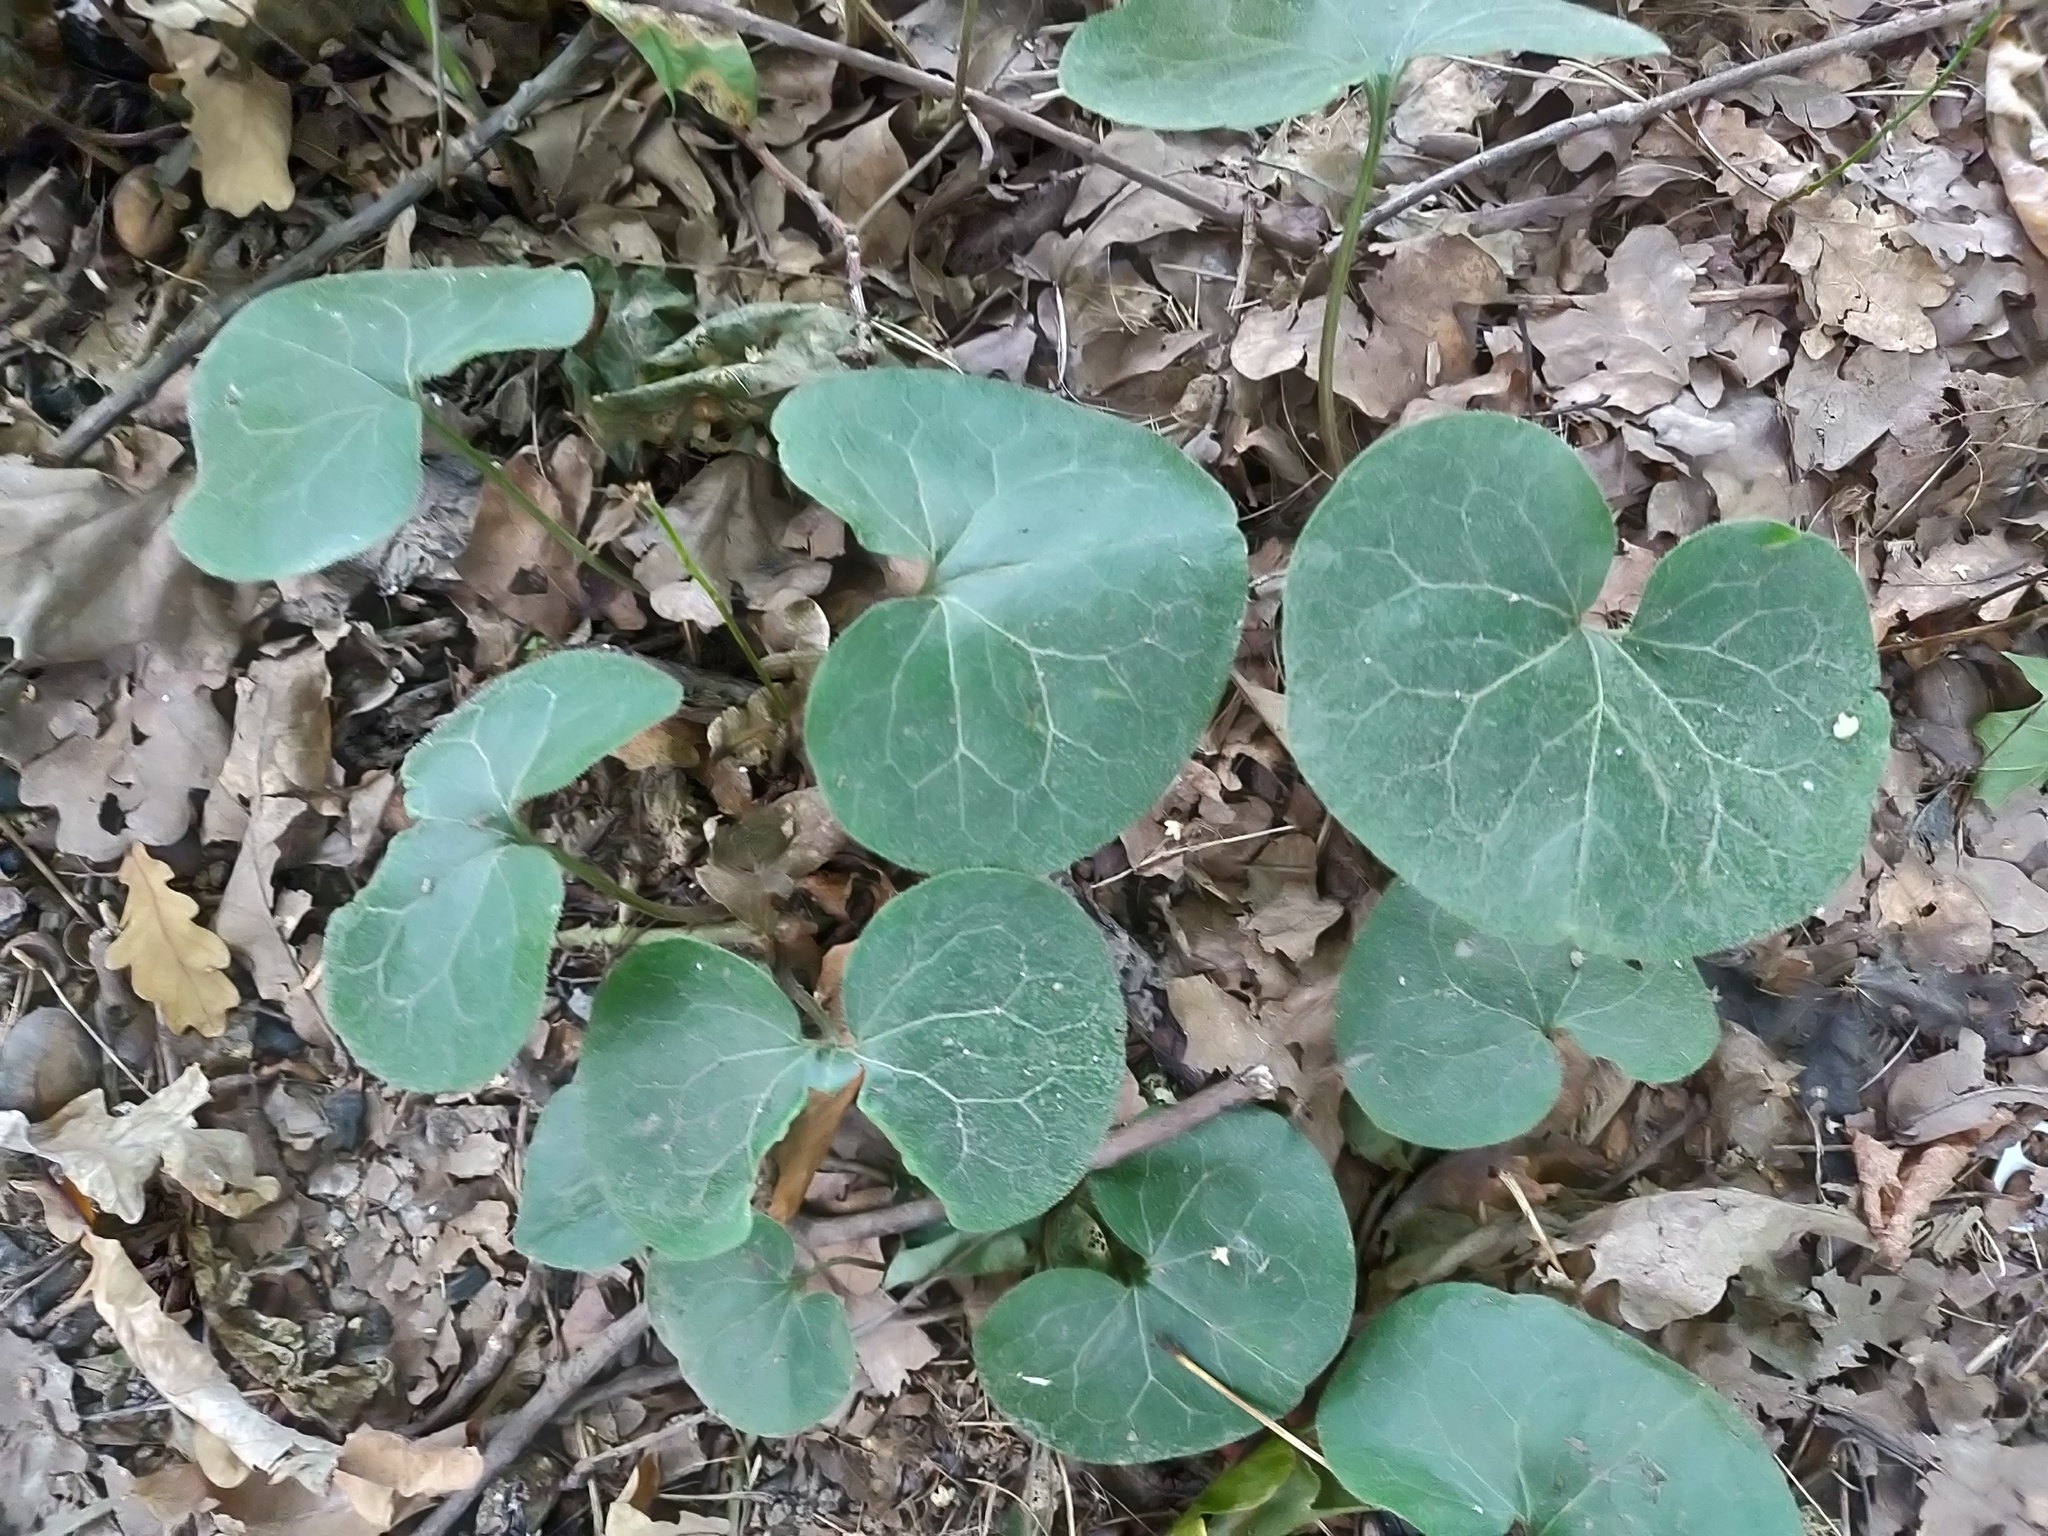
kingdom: Plantae
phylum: Tracheophyta
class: Magnoliopsida
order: Piperales
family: Aristolochiaceae
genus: Asarum
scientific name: Asarum europaeum
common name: Asarabacca
